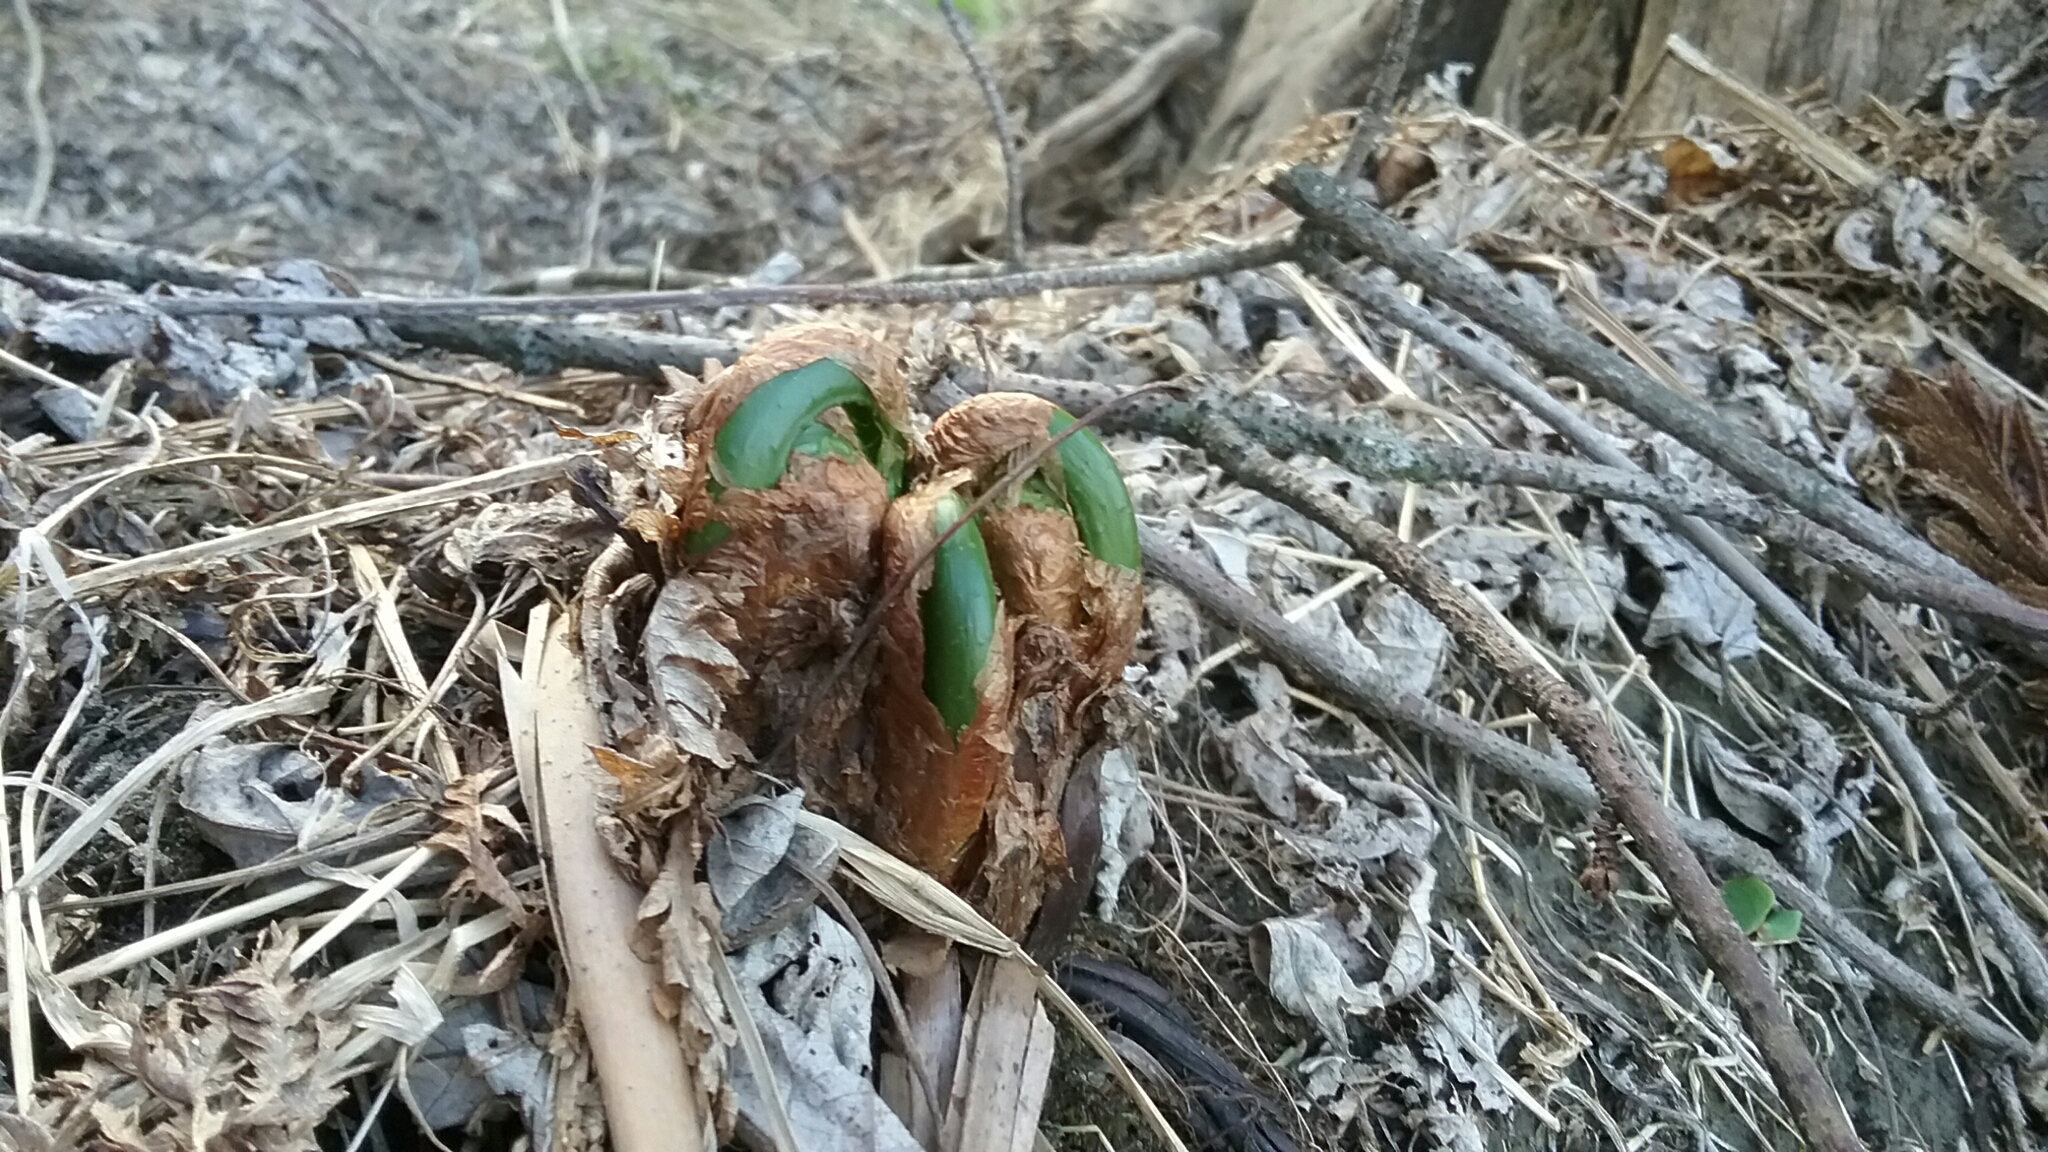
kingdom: Plantae
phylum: Tracheophyta
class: Polypodiopsida
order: Polypodiales
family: Onocleaceae
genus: Matteuccia
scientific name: Matteuccia struthiopteris
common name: Ostrich fern
